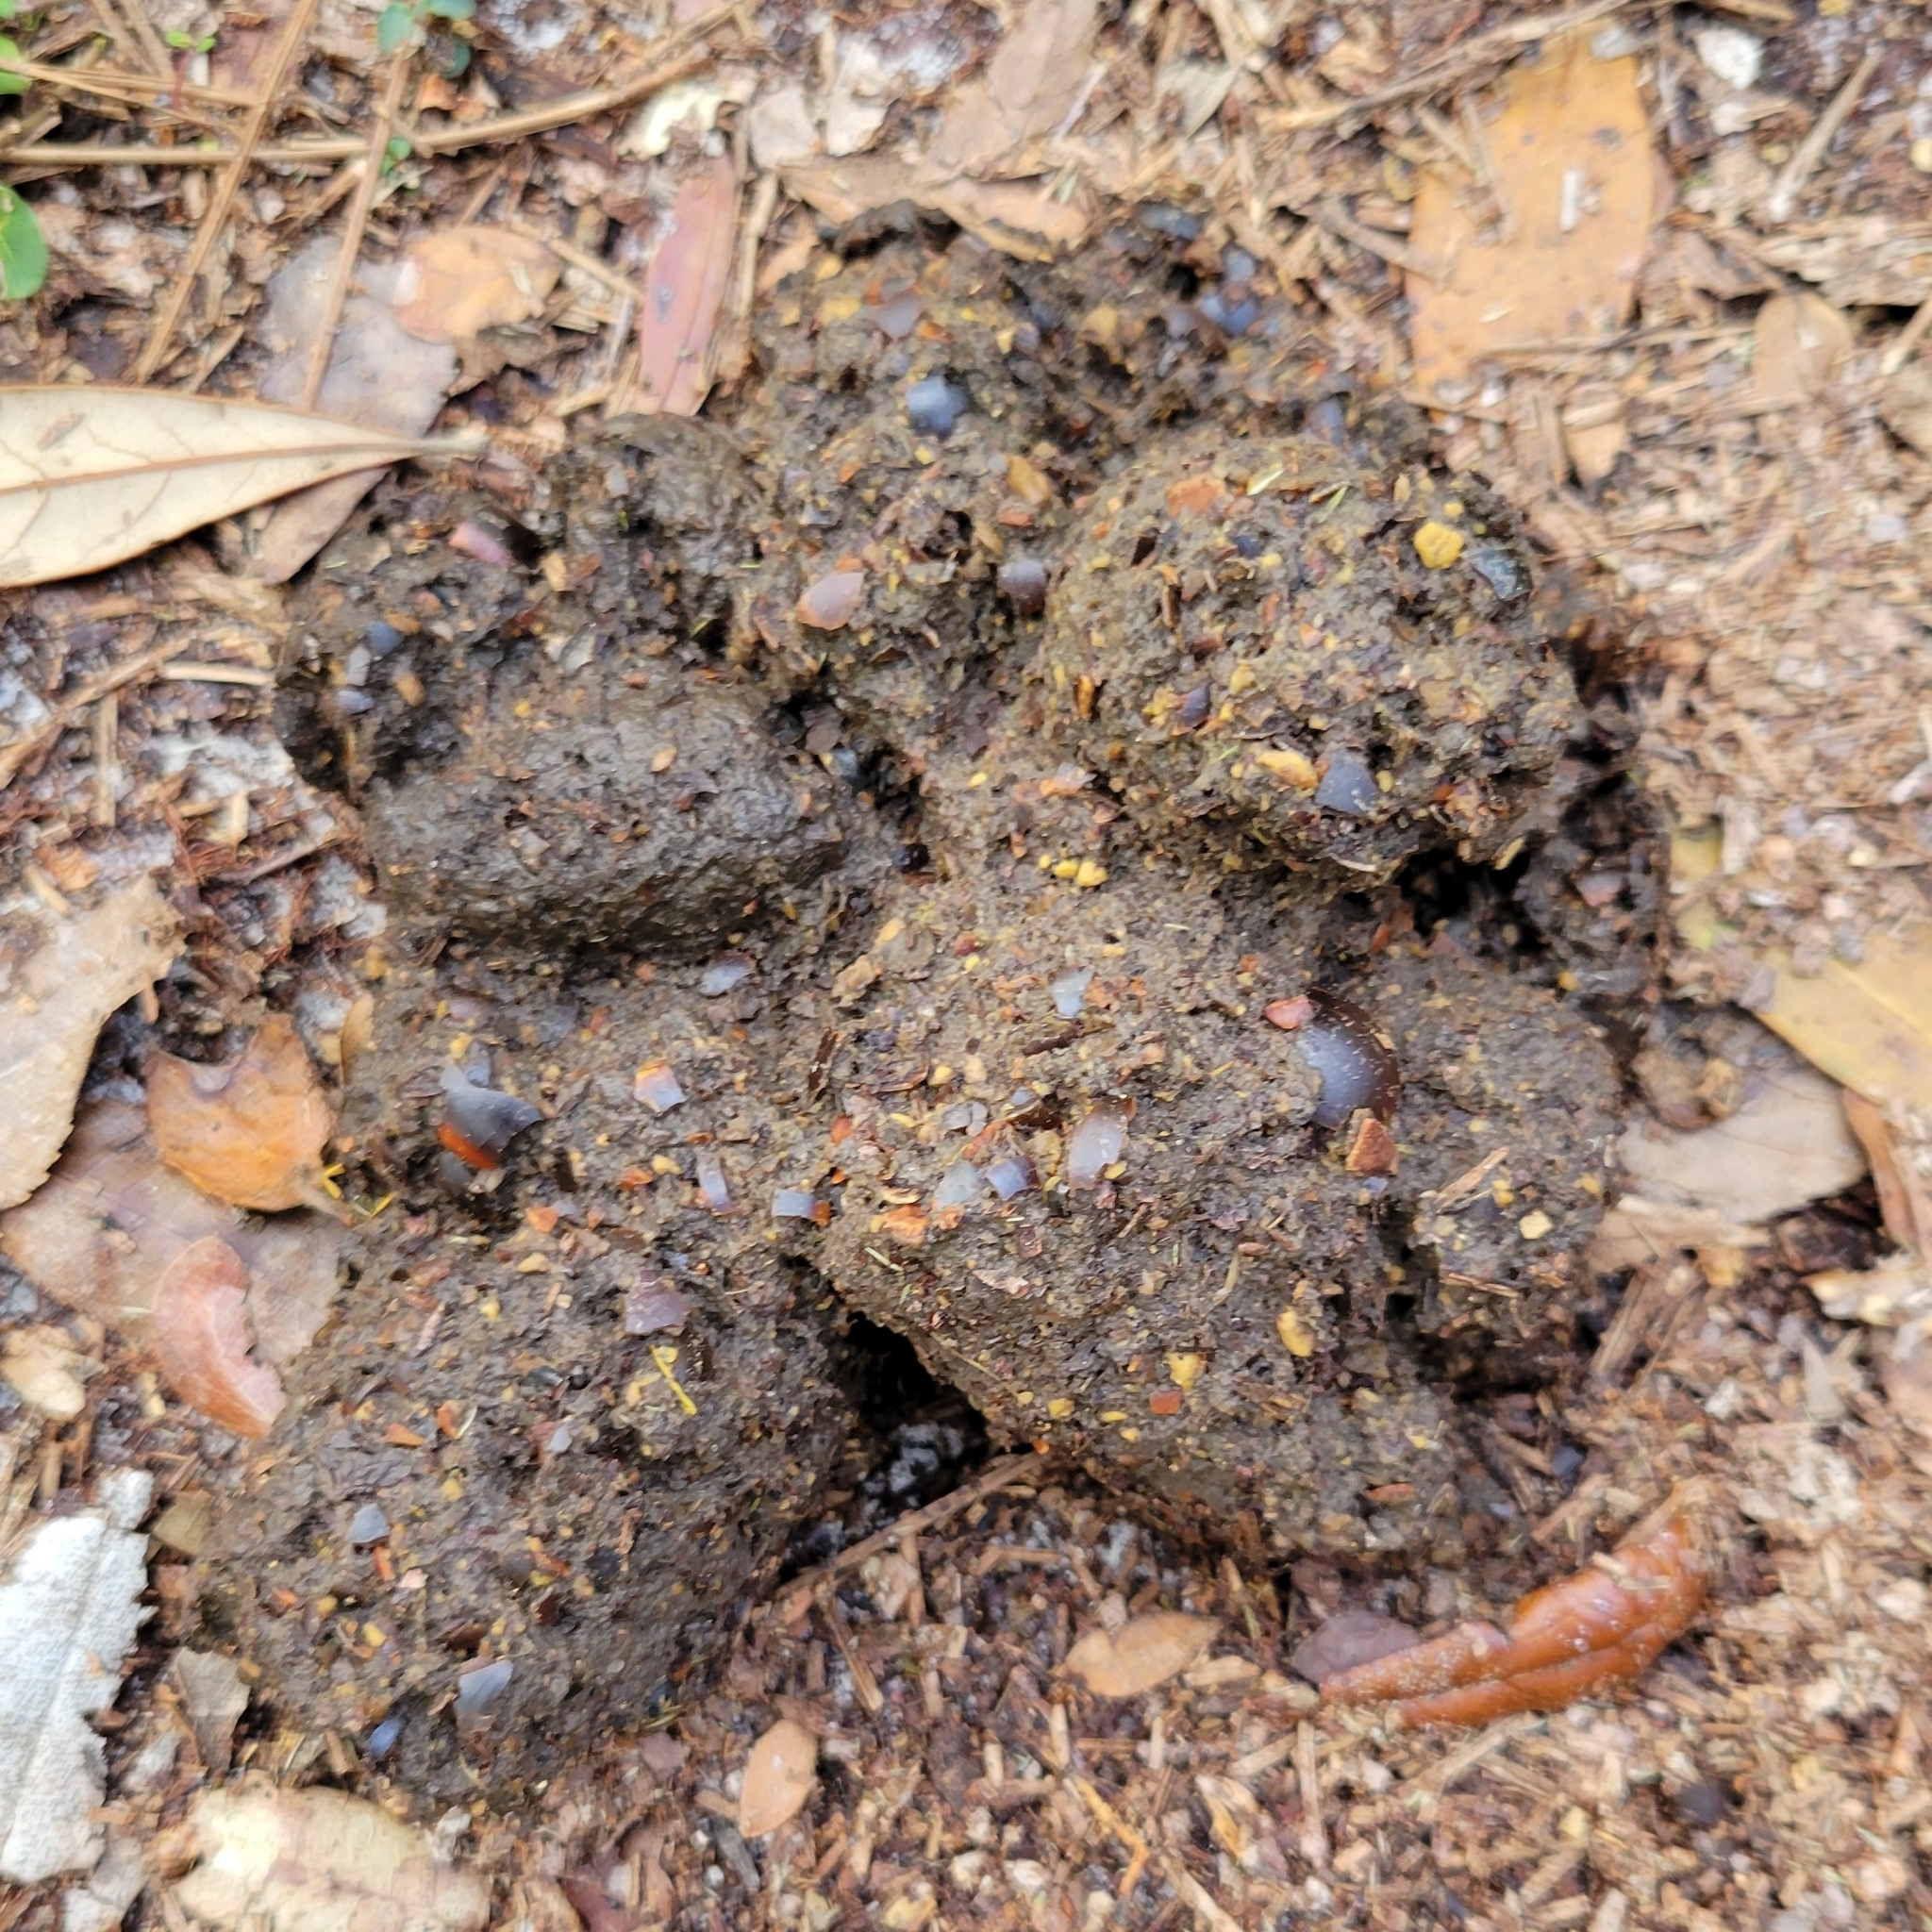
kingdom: Animalia
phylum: Chordata
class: Mammalia
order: Carnivora
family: Ursidae
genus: Ursus
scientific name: Ursus americanus
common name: American black bear
